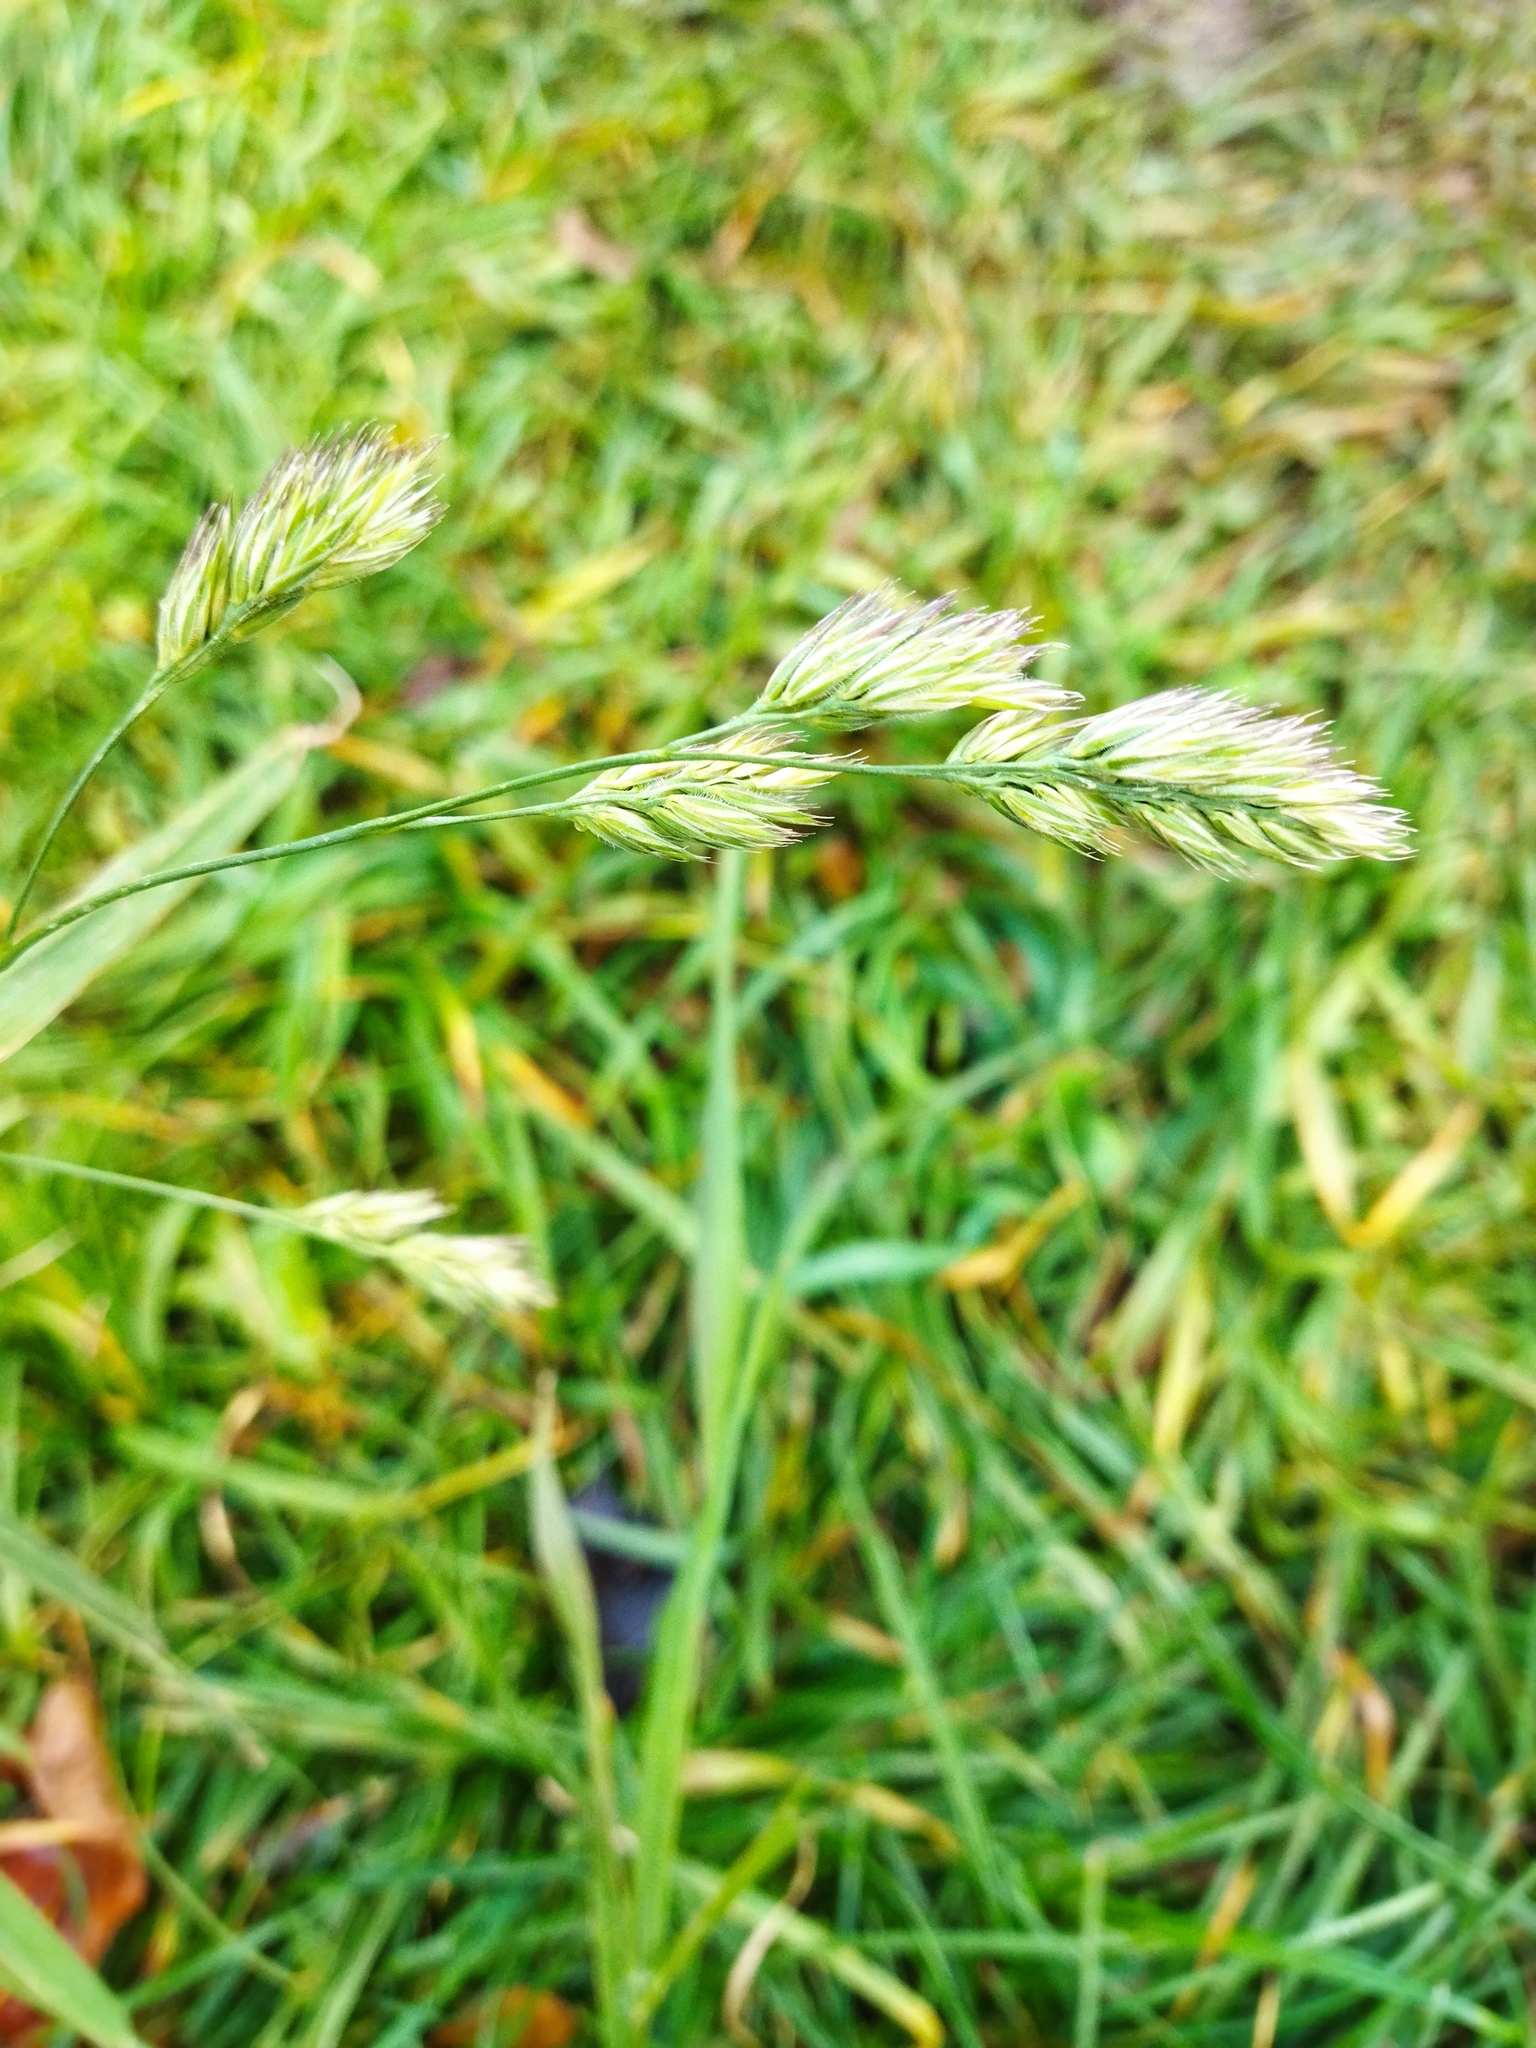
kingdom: Plantae
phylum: Tracheophyta
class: Liliopsida
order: Poales
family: Poaceae
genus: Dactylis
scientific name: Dactylis glomerata
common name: Orchardgrass
